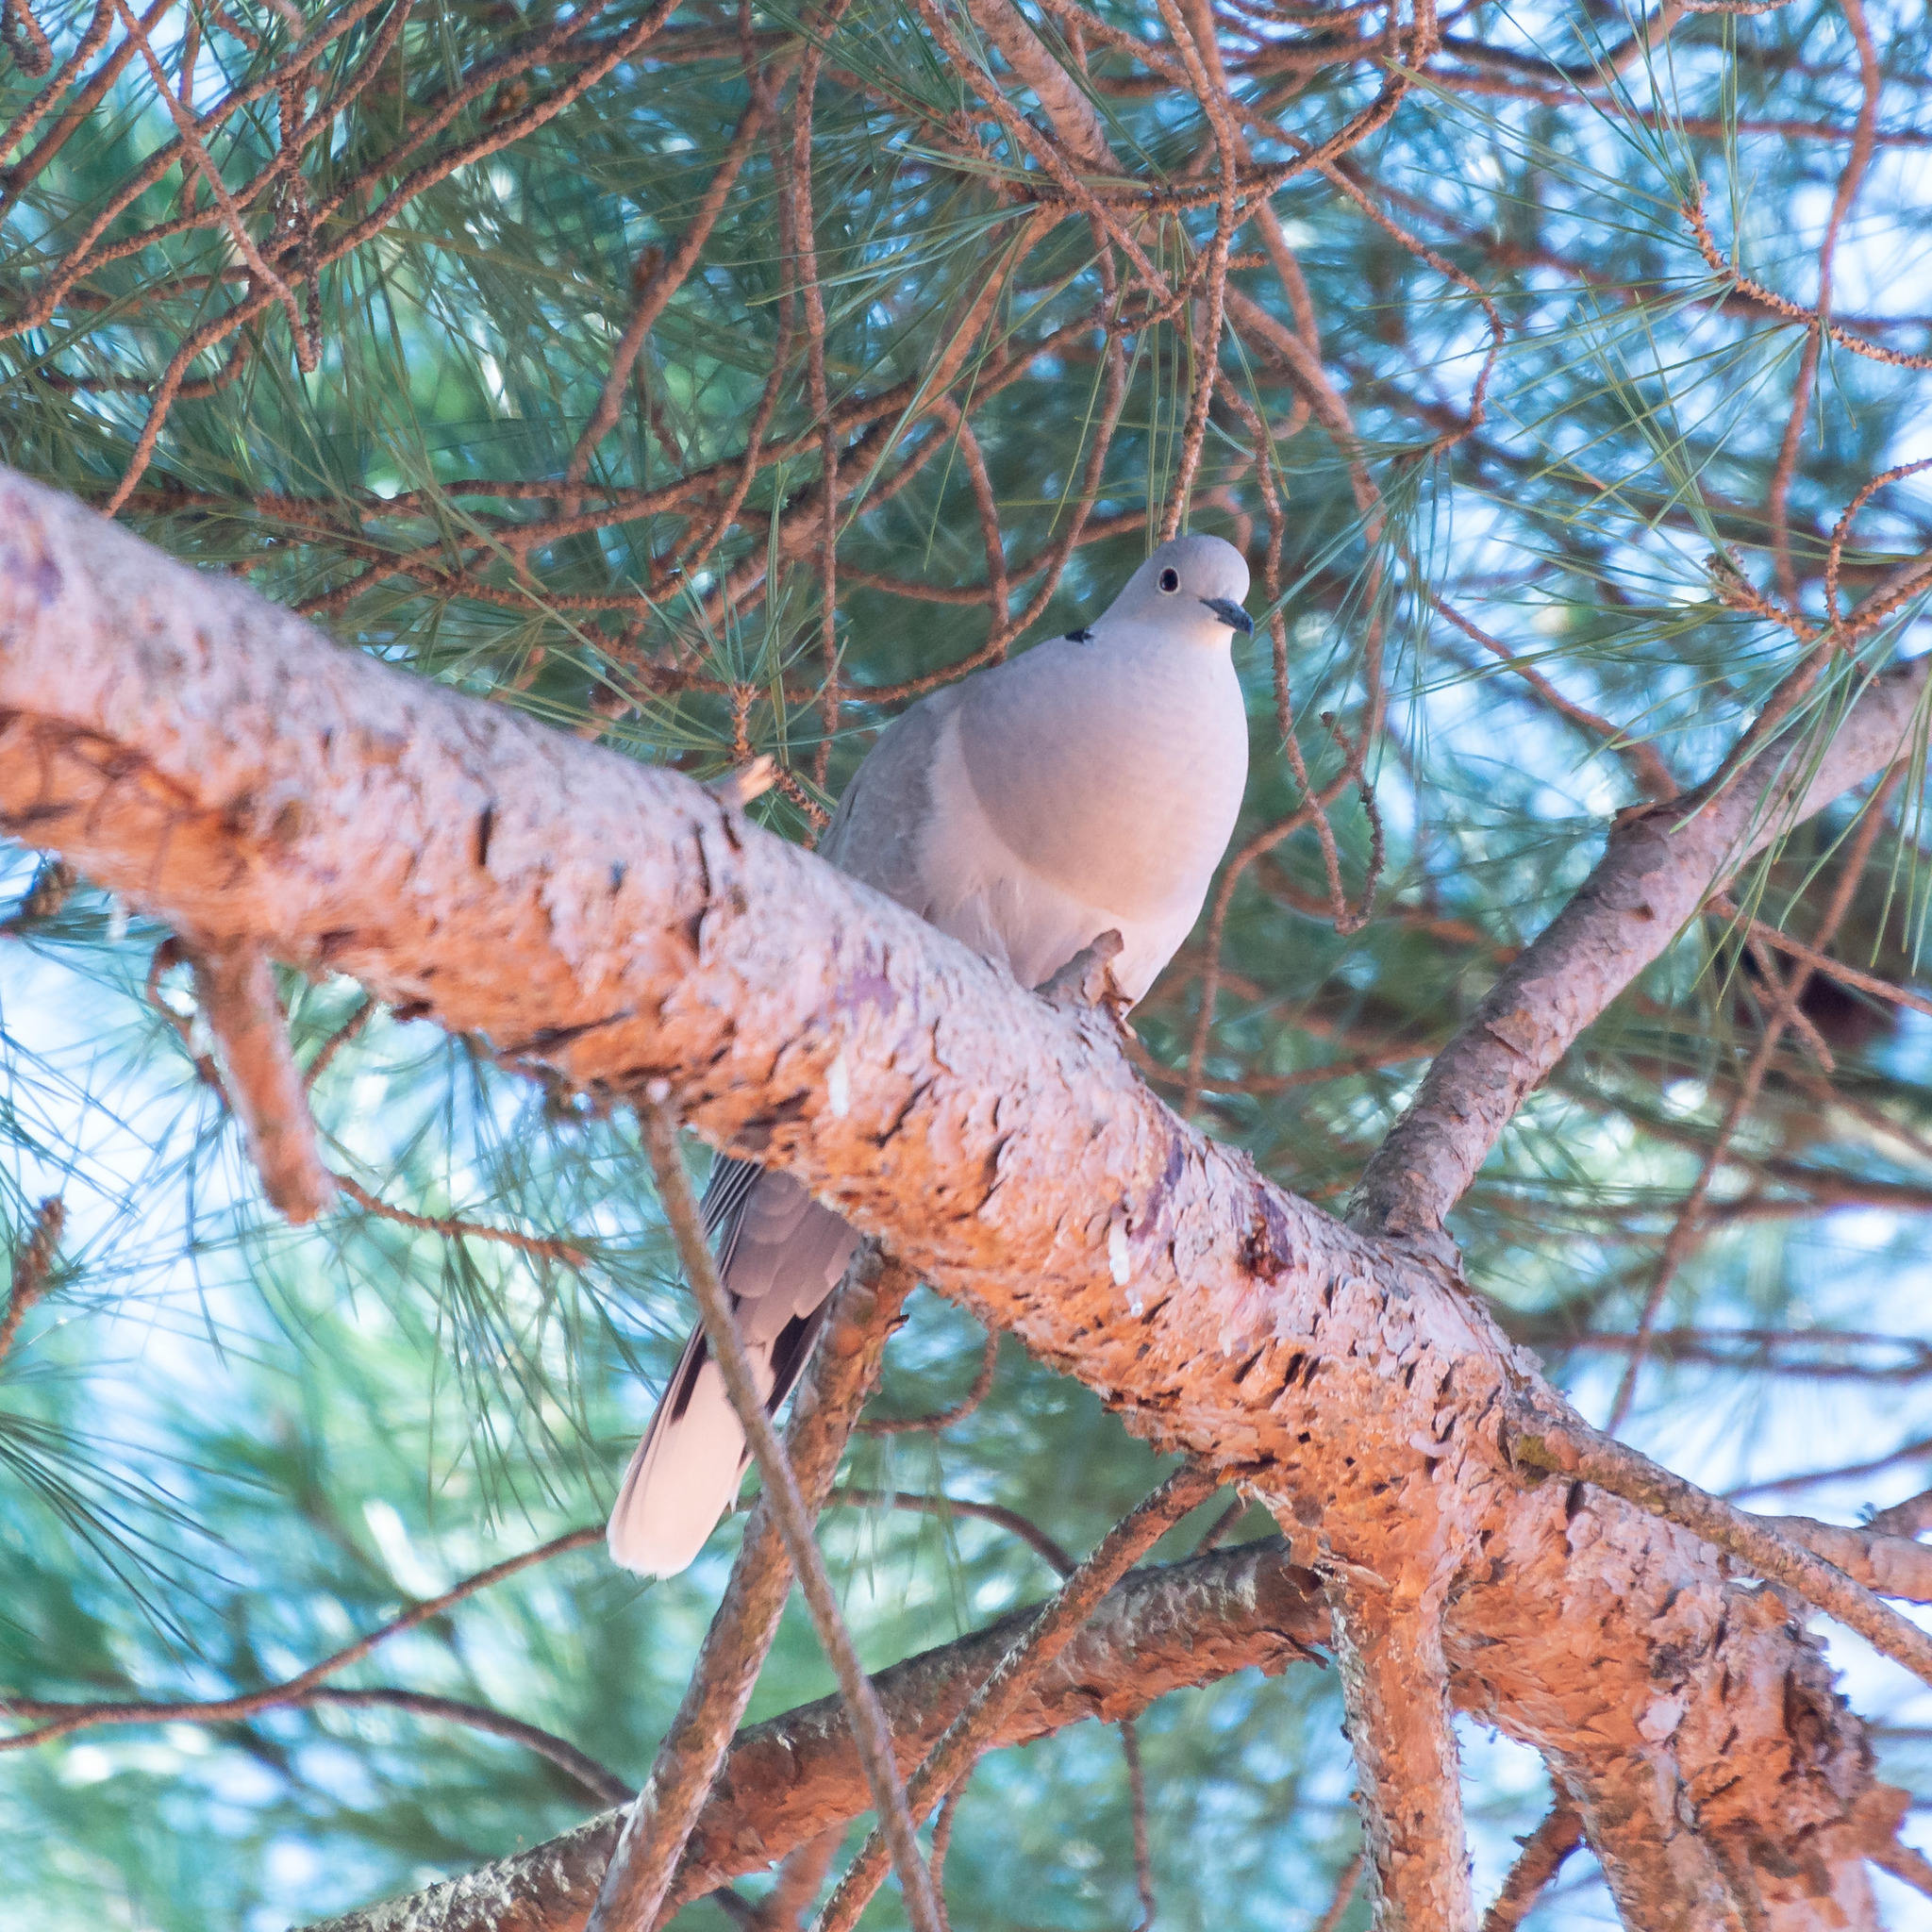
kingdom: Animalia
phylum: Chordata
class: Aves
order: Columbiformes
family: Columbidae
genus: Streptopelia
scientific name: Streptopelia decaocto
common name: Eurasian collared dove
